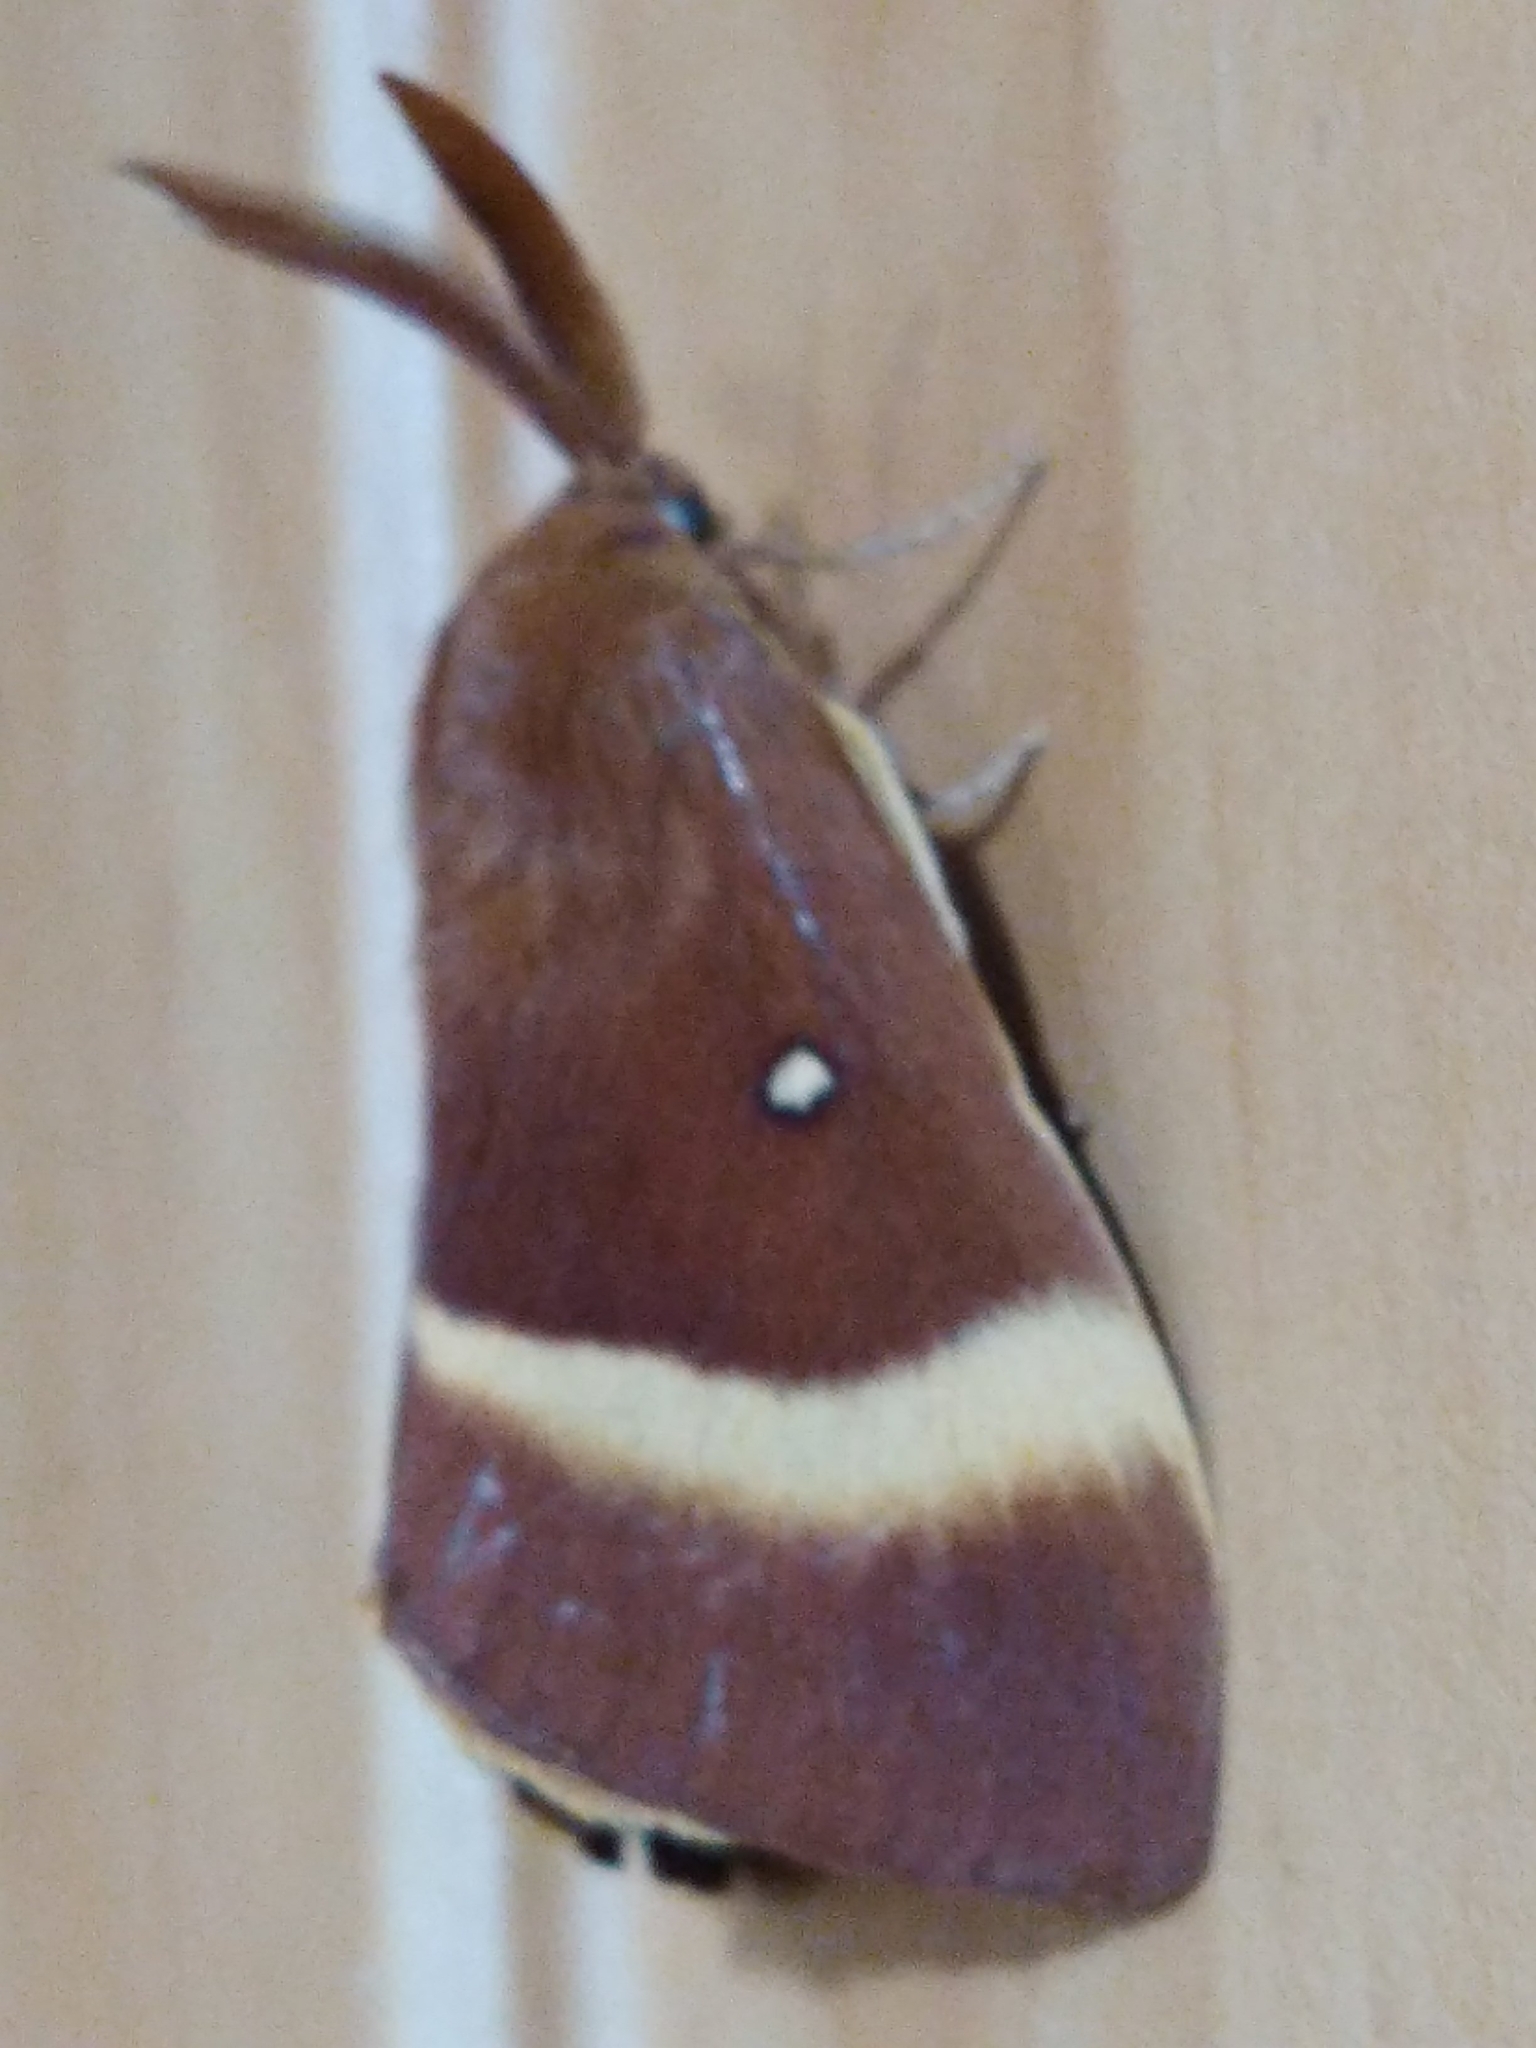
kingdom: Animalia
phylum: Arthropoda
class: Insecta
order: Lepidoptera
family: Lasiocampidae
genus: Lasiocampa
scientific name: Lasiocampa quercus
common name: Oak eggar
